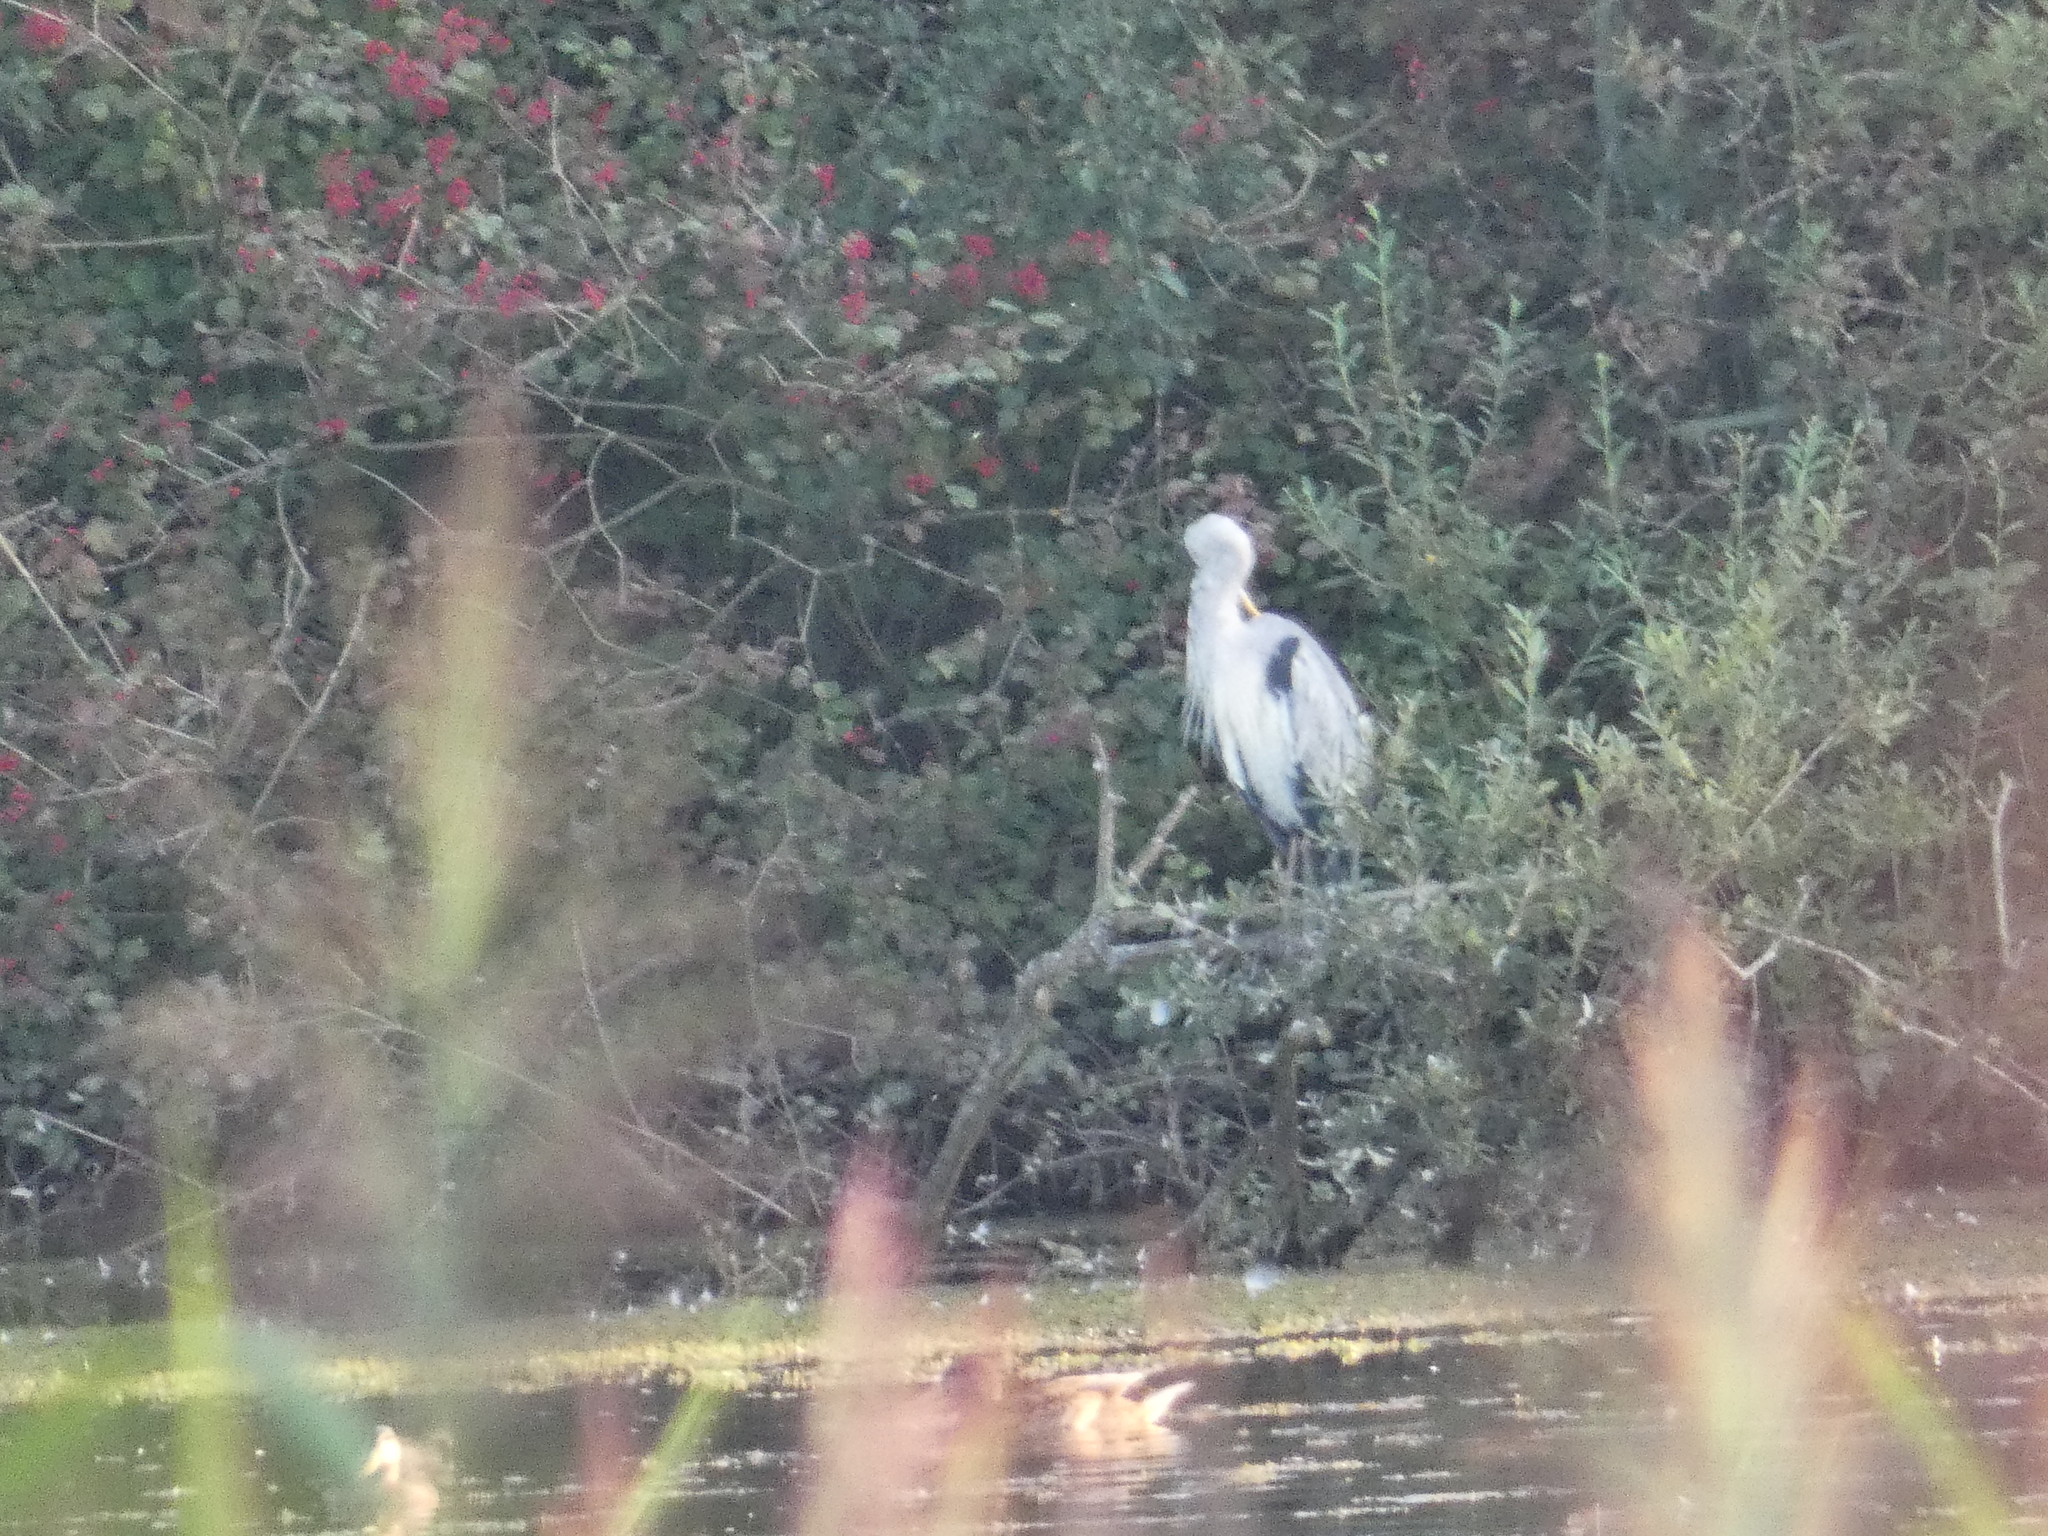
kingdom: Animalia
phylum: Chordata
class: Aves
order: Pelecaniformes
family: Ardeidae
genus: Ardea
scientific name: Ardea cinerea
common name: Grey heron
